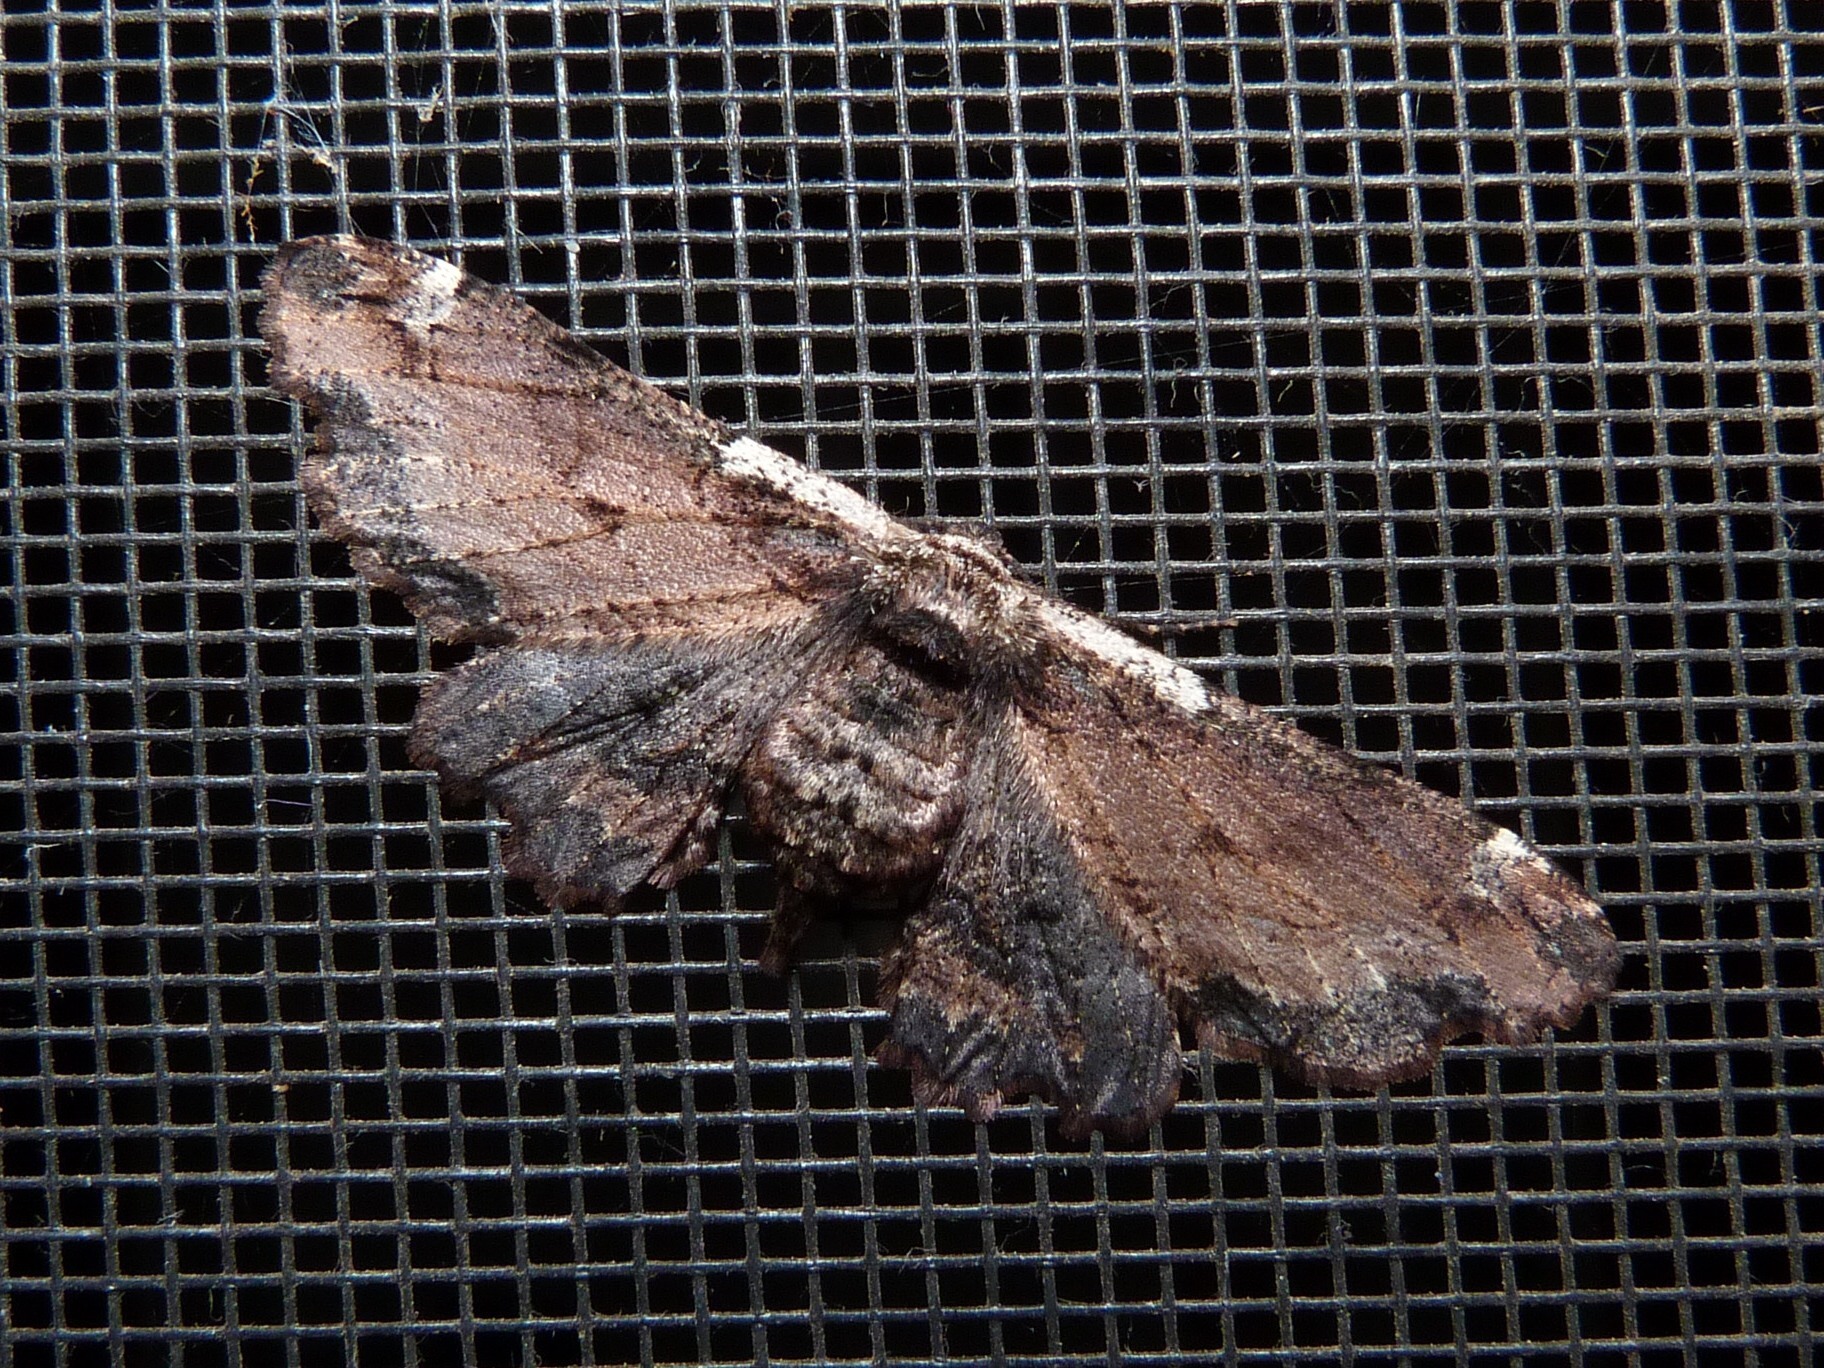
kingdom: Animalia
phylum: Arthropoda
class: Insecta
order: Lepidoptera
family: Geometridae
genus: Pholodes
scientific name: Pholodes sinistraria
